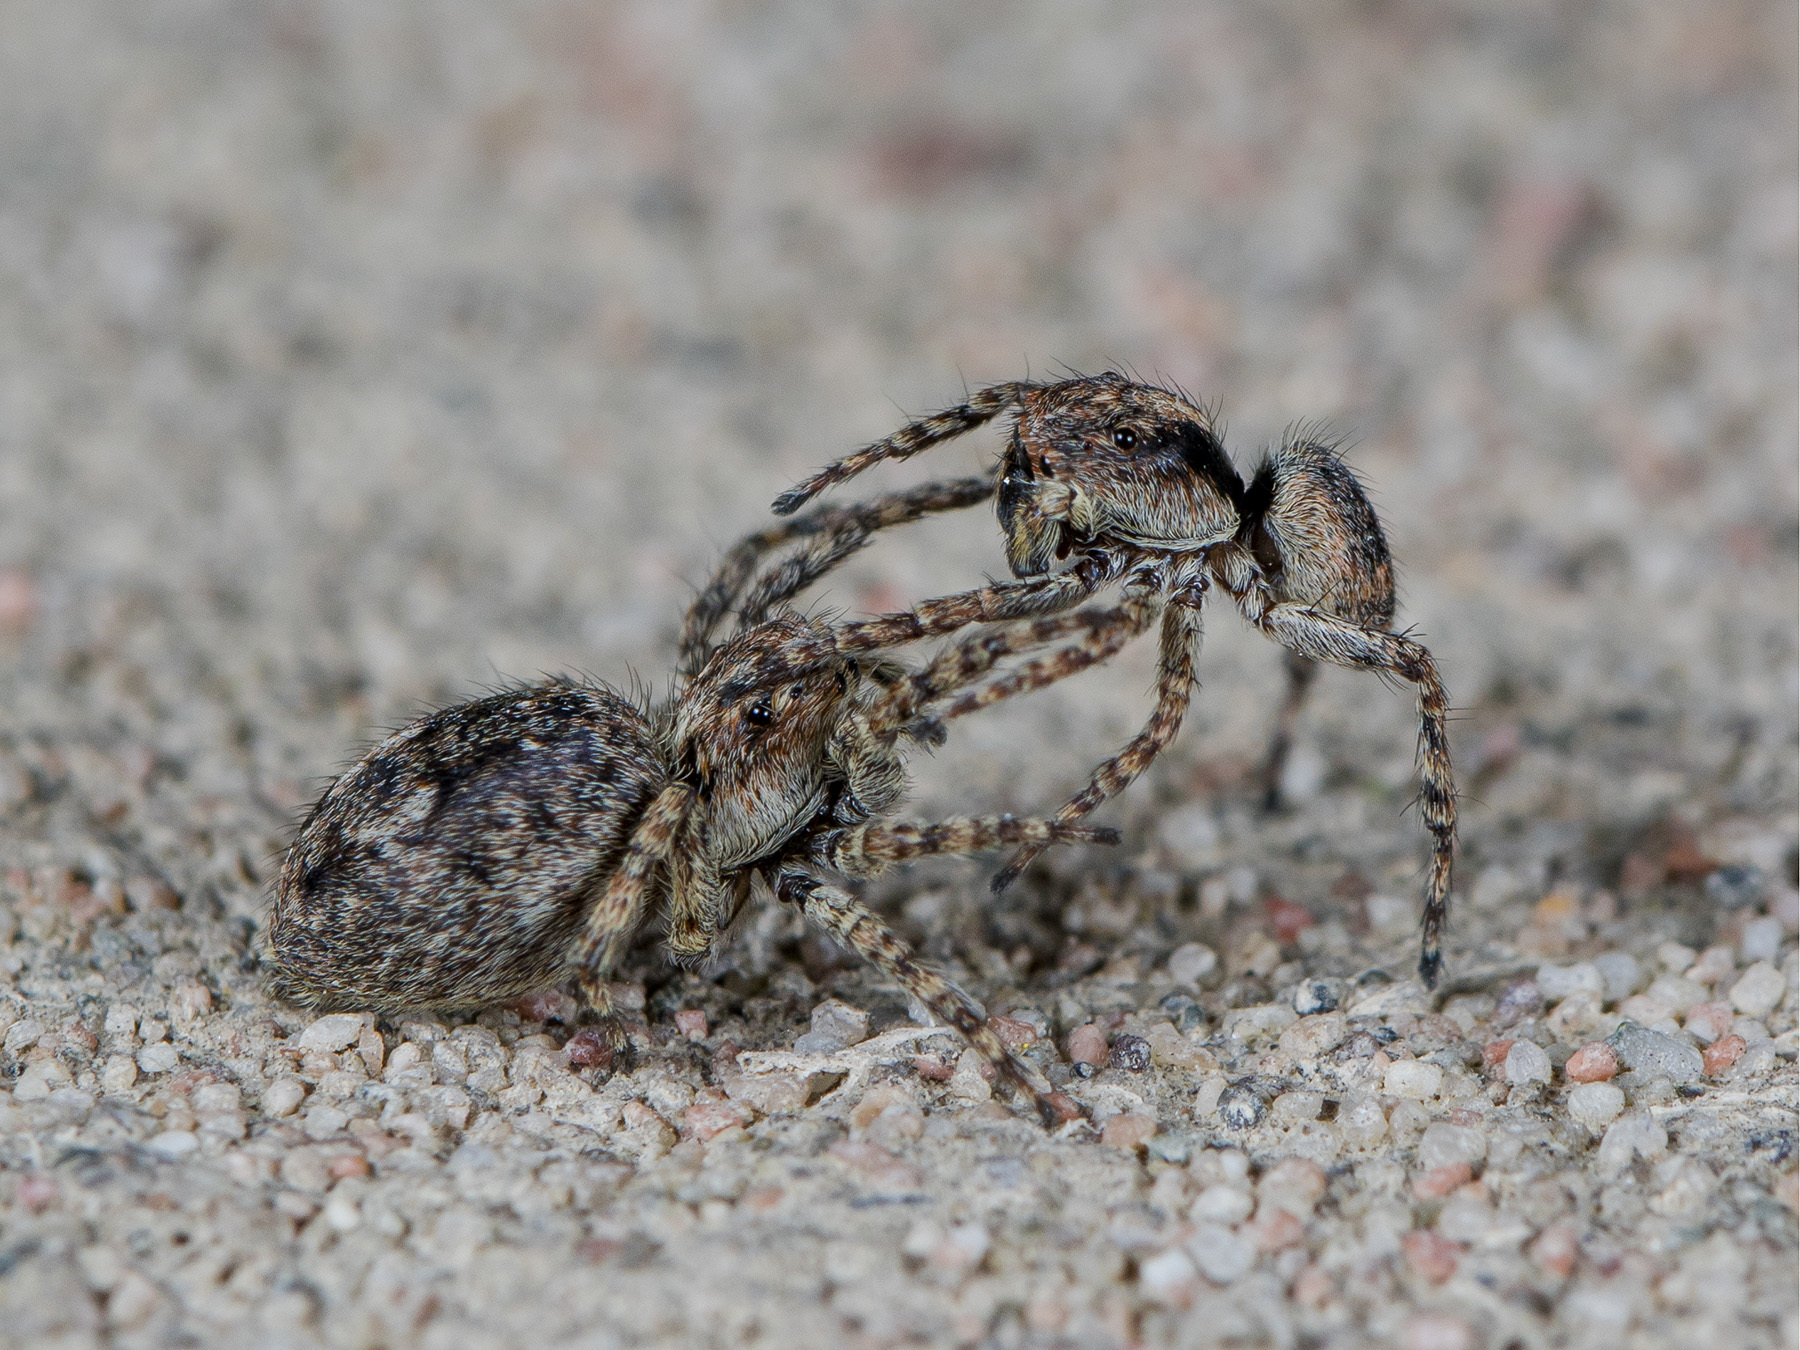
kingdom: Animalia
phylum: Arthropoda
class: Arachnida
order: Araneae
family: Salticidae
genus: Attulus
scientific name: Attulus fasciger
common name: Asiatic wall jumping spider
